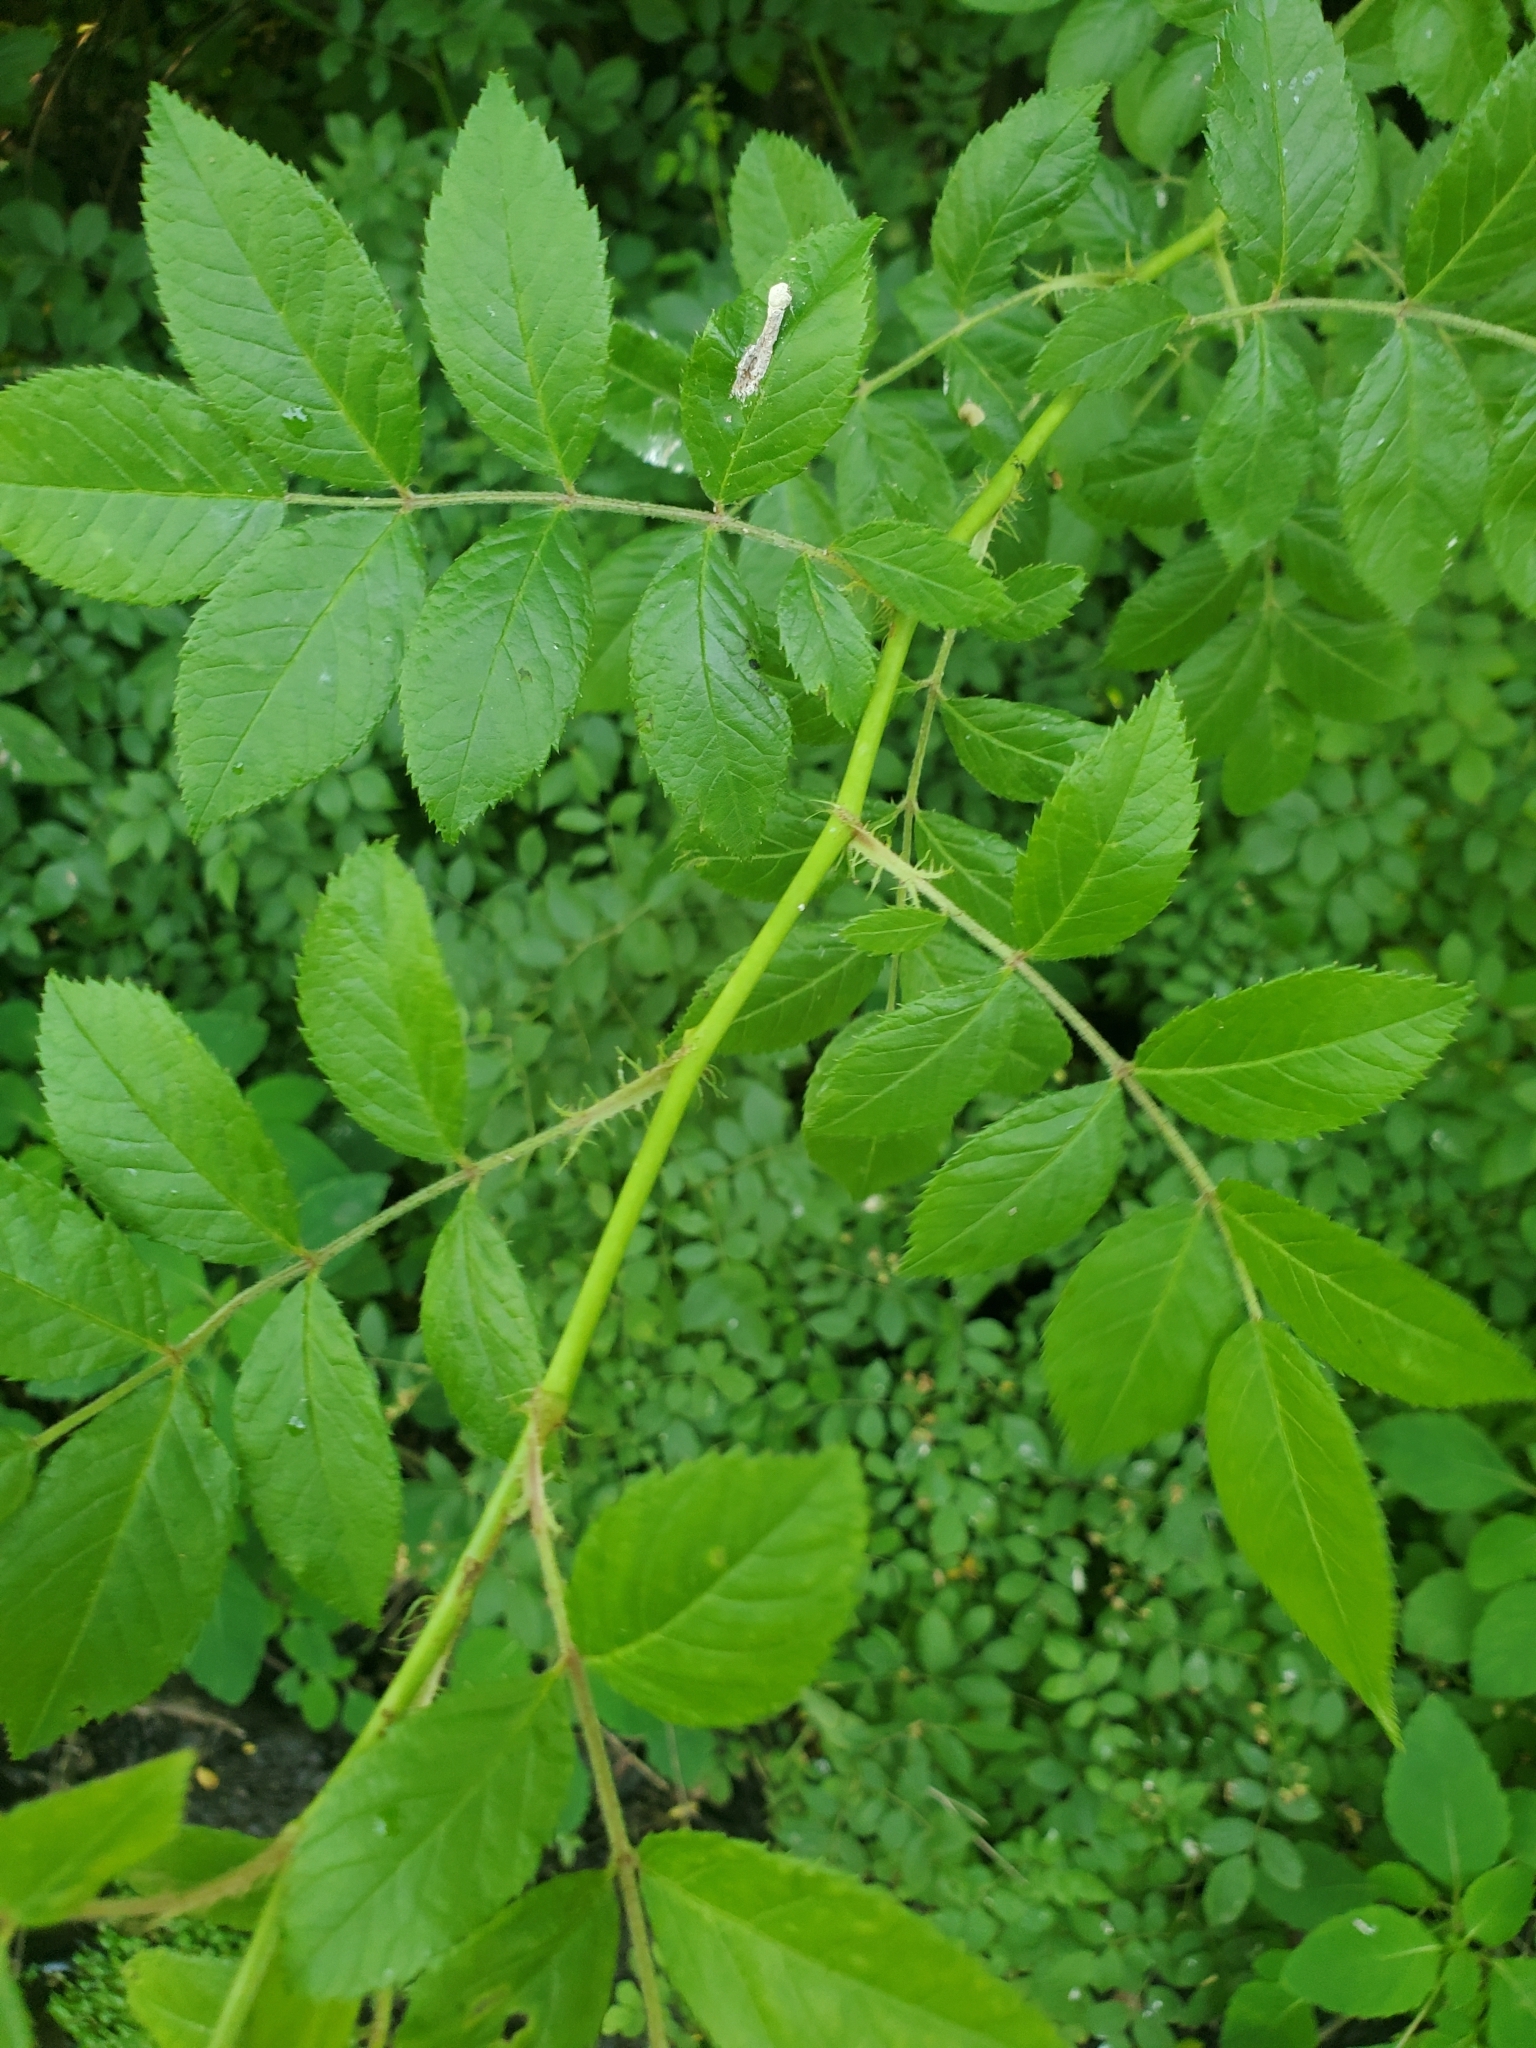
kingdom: Plantae
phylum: Tracheophyta
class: Magnoliopsida
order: Rosales
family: Rosaceae
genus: Rosa
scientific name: Rosa multiflora
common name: Multiflora rose
